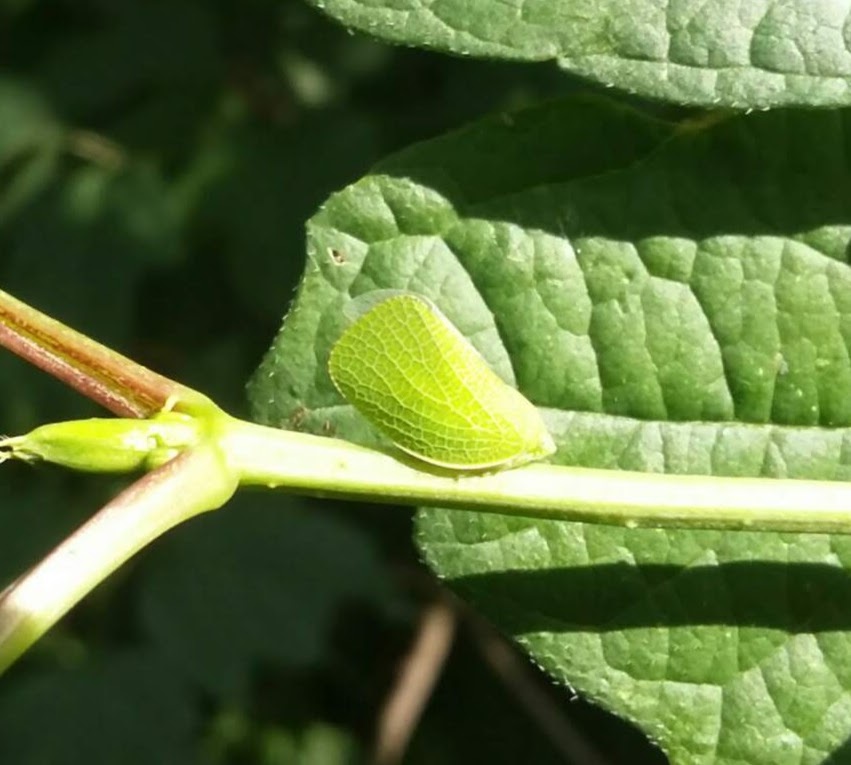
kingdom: Animalia
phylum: Arthropoda
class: Insecta
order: Hemiptera
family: Acanaloniidae
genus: Acanalonia
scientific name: Acanalonia conica
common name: Green cone-headed planthopper
